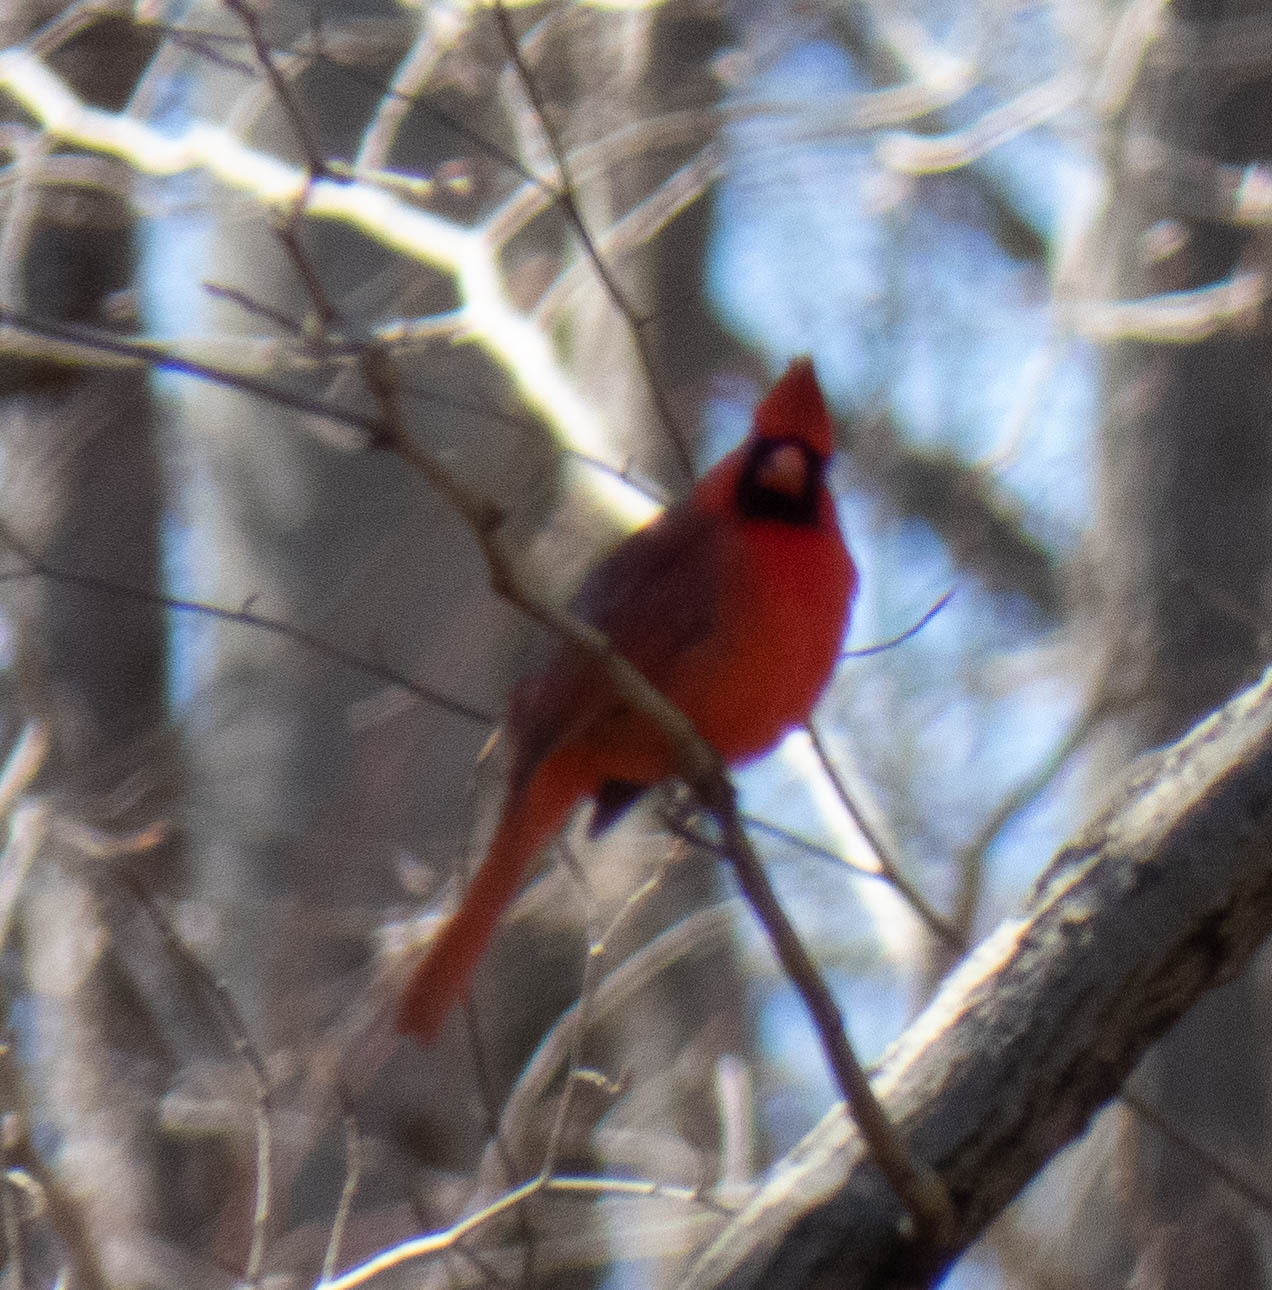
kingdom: Animalia
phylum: Chordata
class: Aves
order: Passeriformes
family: Cardinalidae
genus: Cardinalis
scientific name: Cardinalis cardinalis
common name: Northern cardinal
